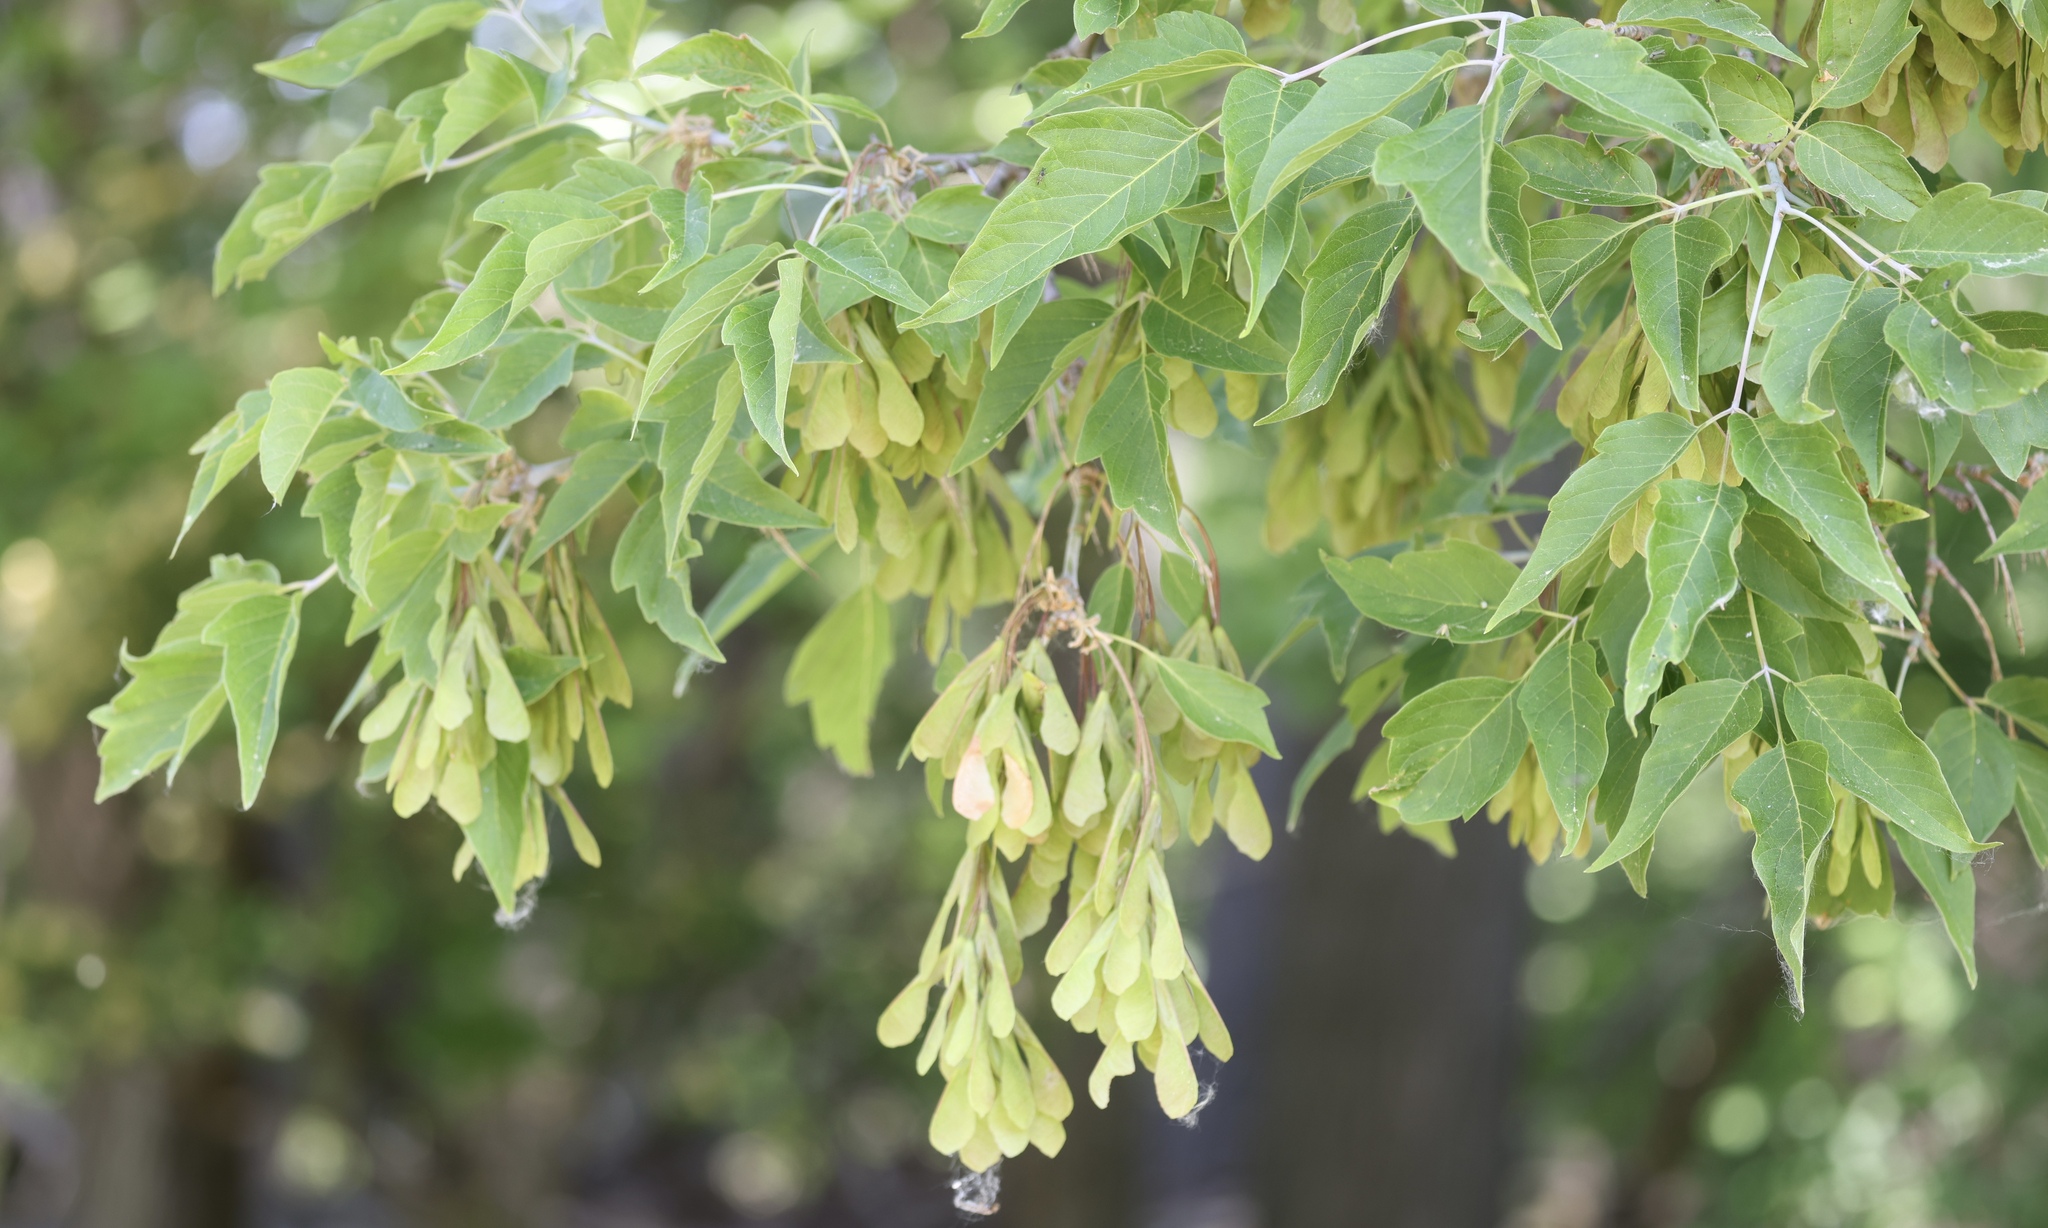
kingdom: Plantae
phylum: Tracheophyta
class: Magnoliopsida
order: Sapindales
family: Sapindaceae
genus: Acer
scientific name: Acer negundo
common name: Ashleaf maple
